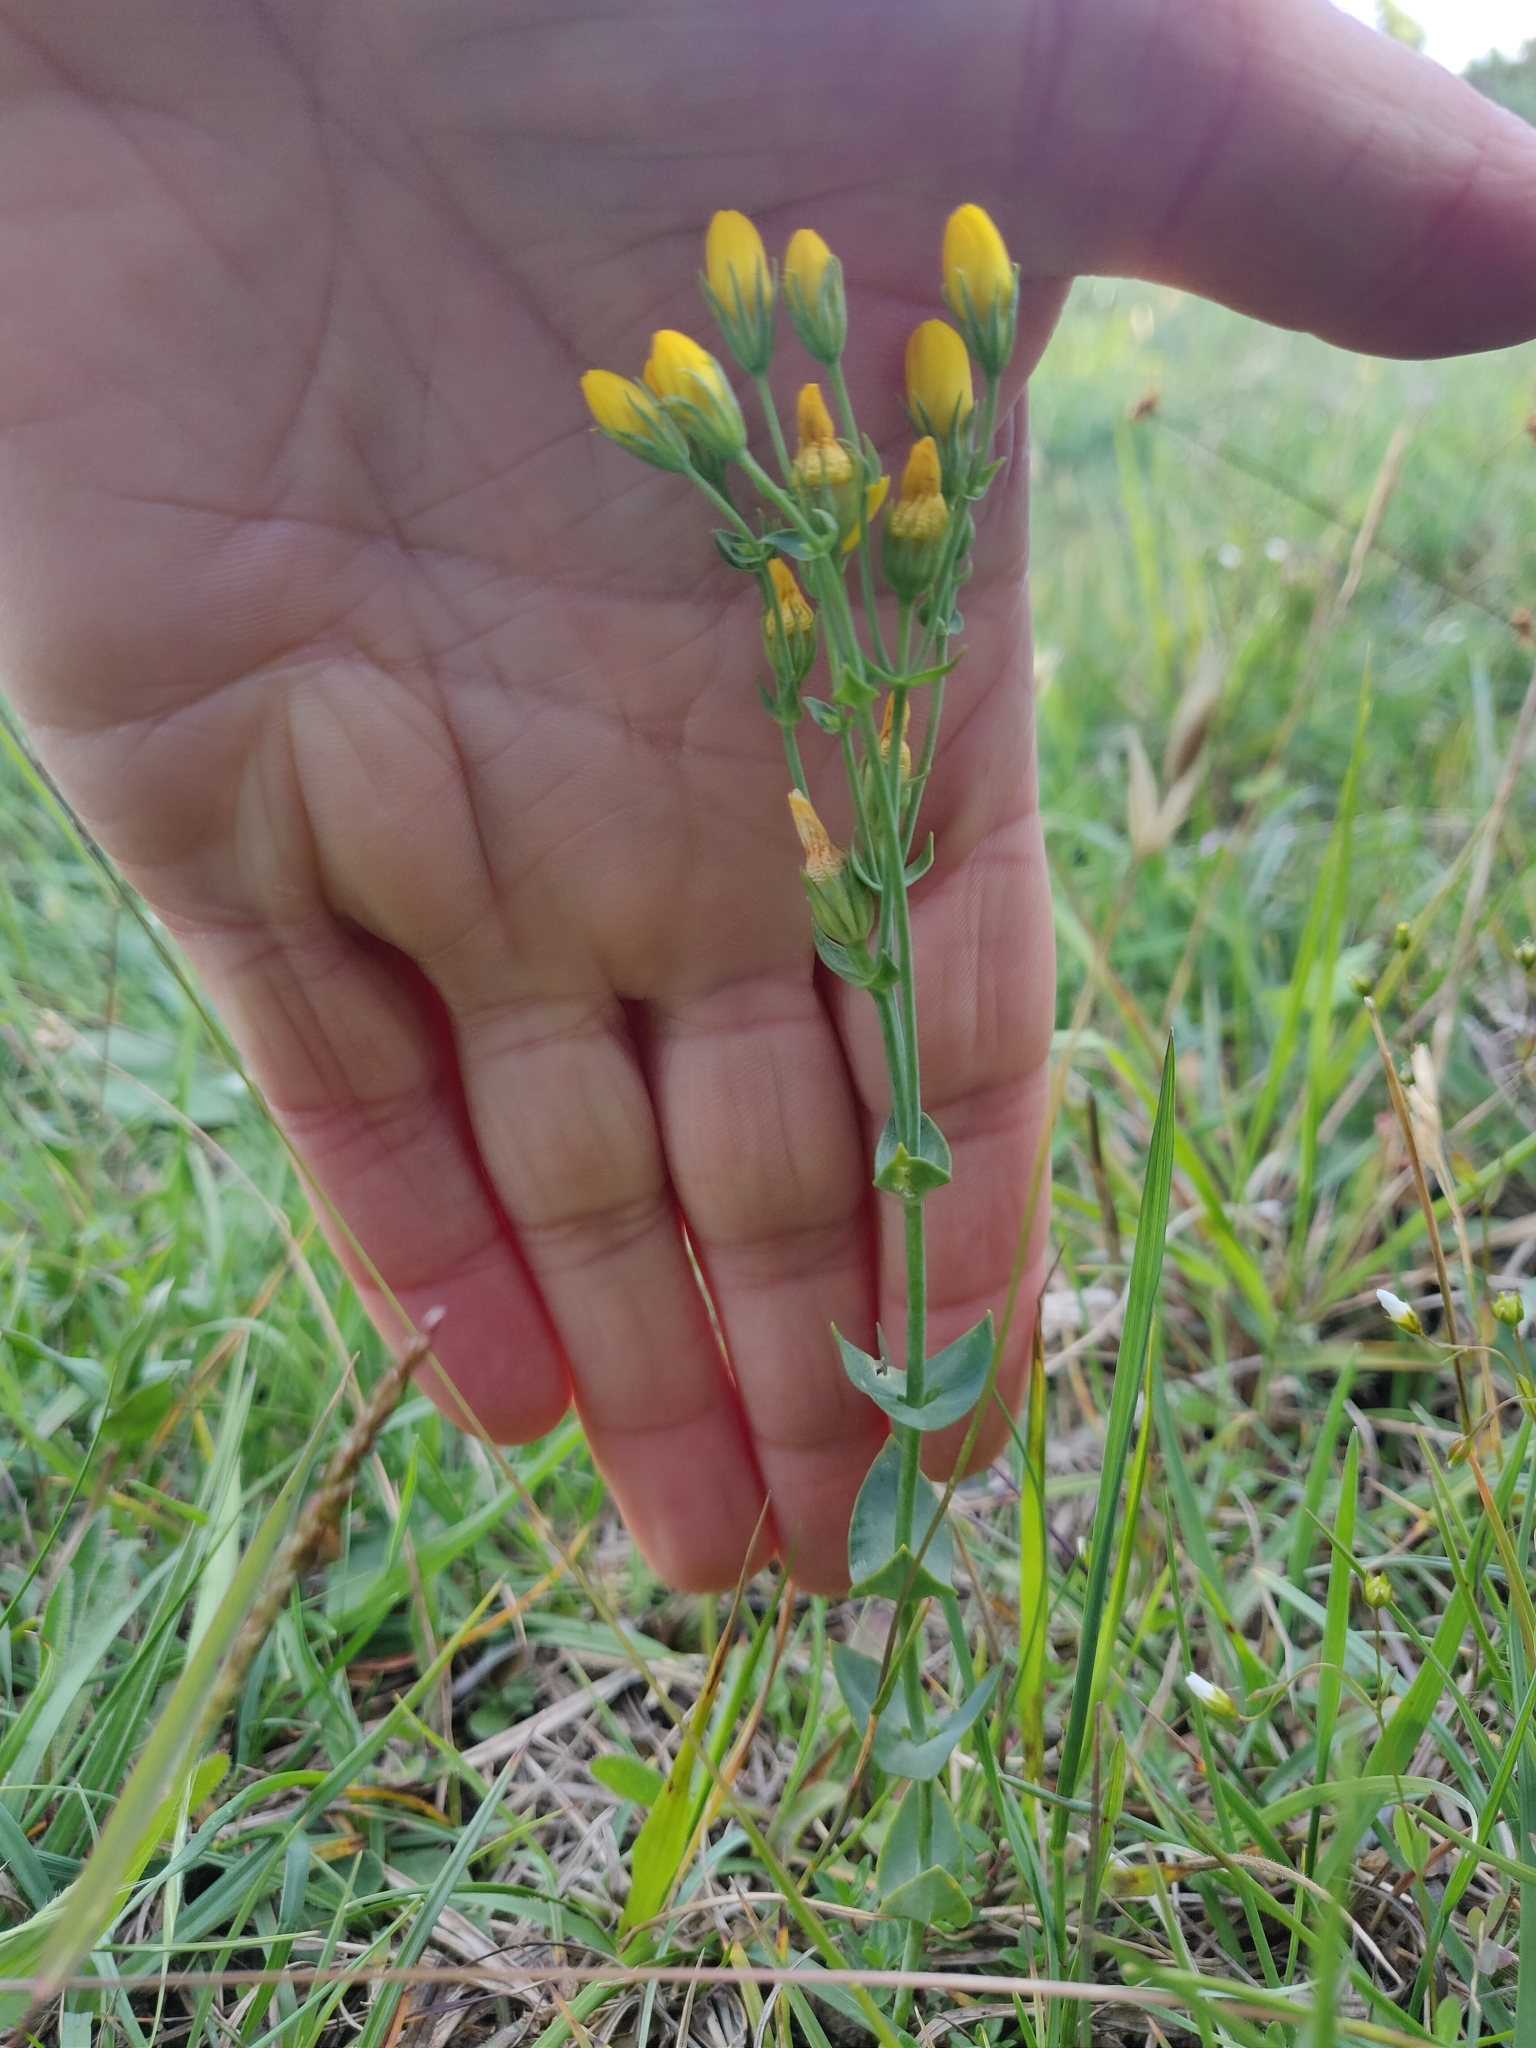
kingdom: Plantae
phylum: Tracheophyta
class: Magnoliopsida
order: Gentianales
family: Gentianaceae
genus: Blackstonia
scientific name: Blackstonia perfoliata
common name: Yellow-wort
